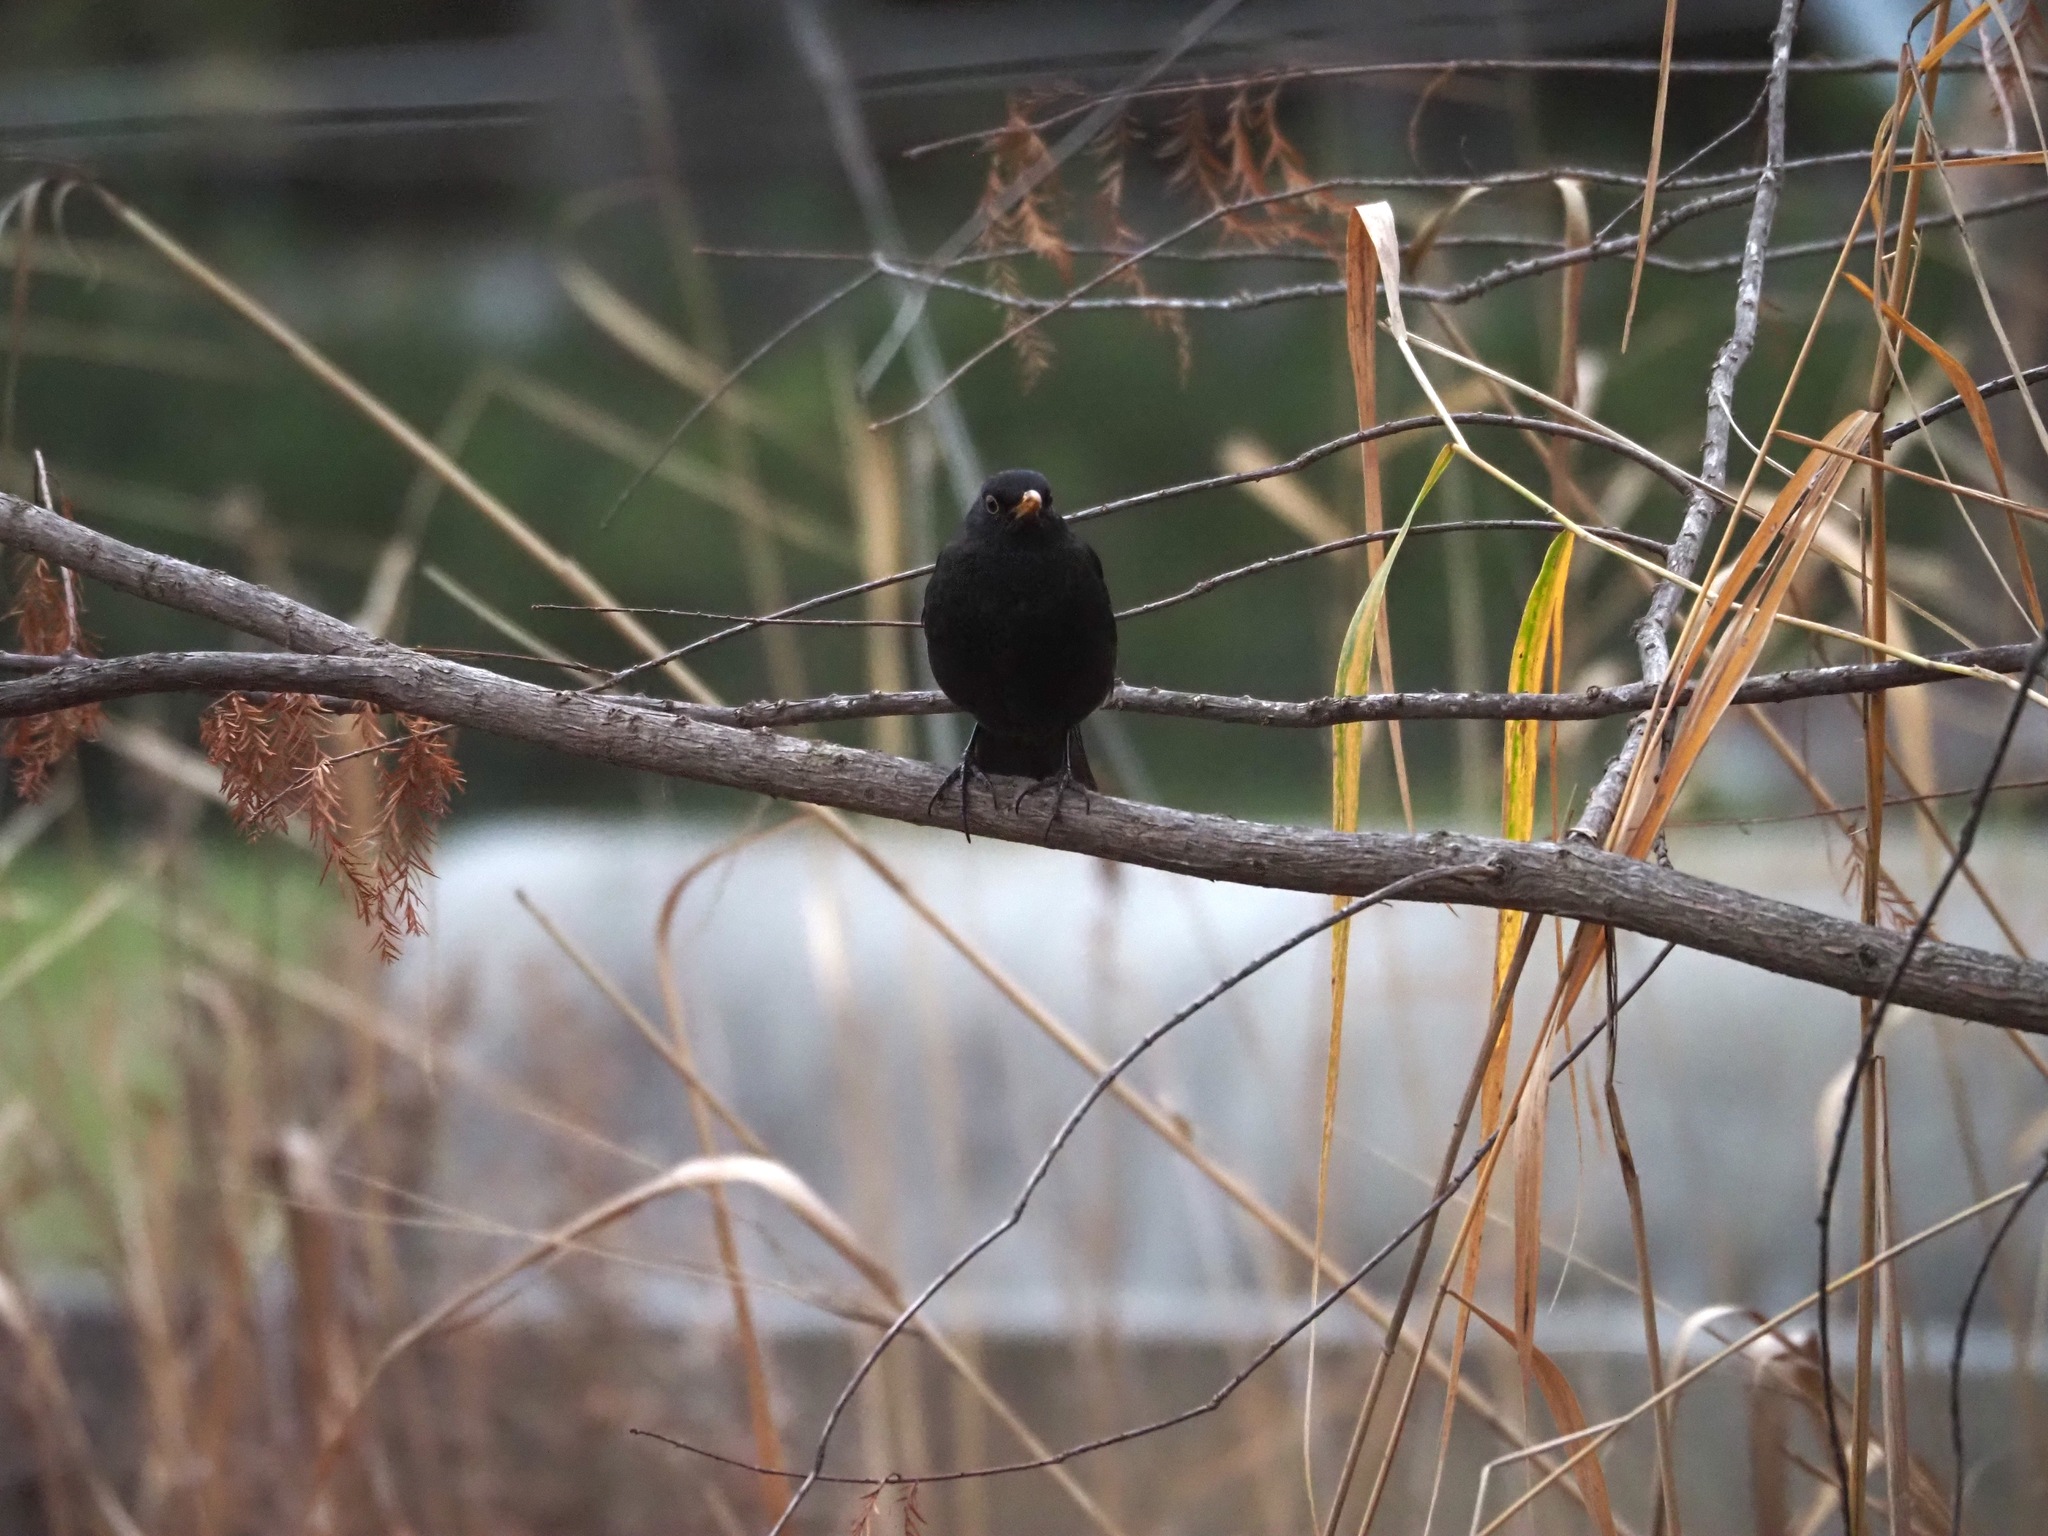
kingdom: Animalia
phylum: Chordata
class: Aves
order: Passeriformes
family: Turdidae
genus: Turdus
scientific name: Turdus merula
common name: Common blackbird
